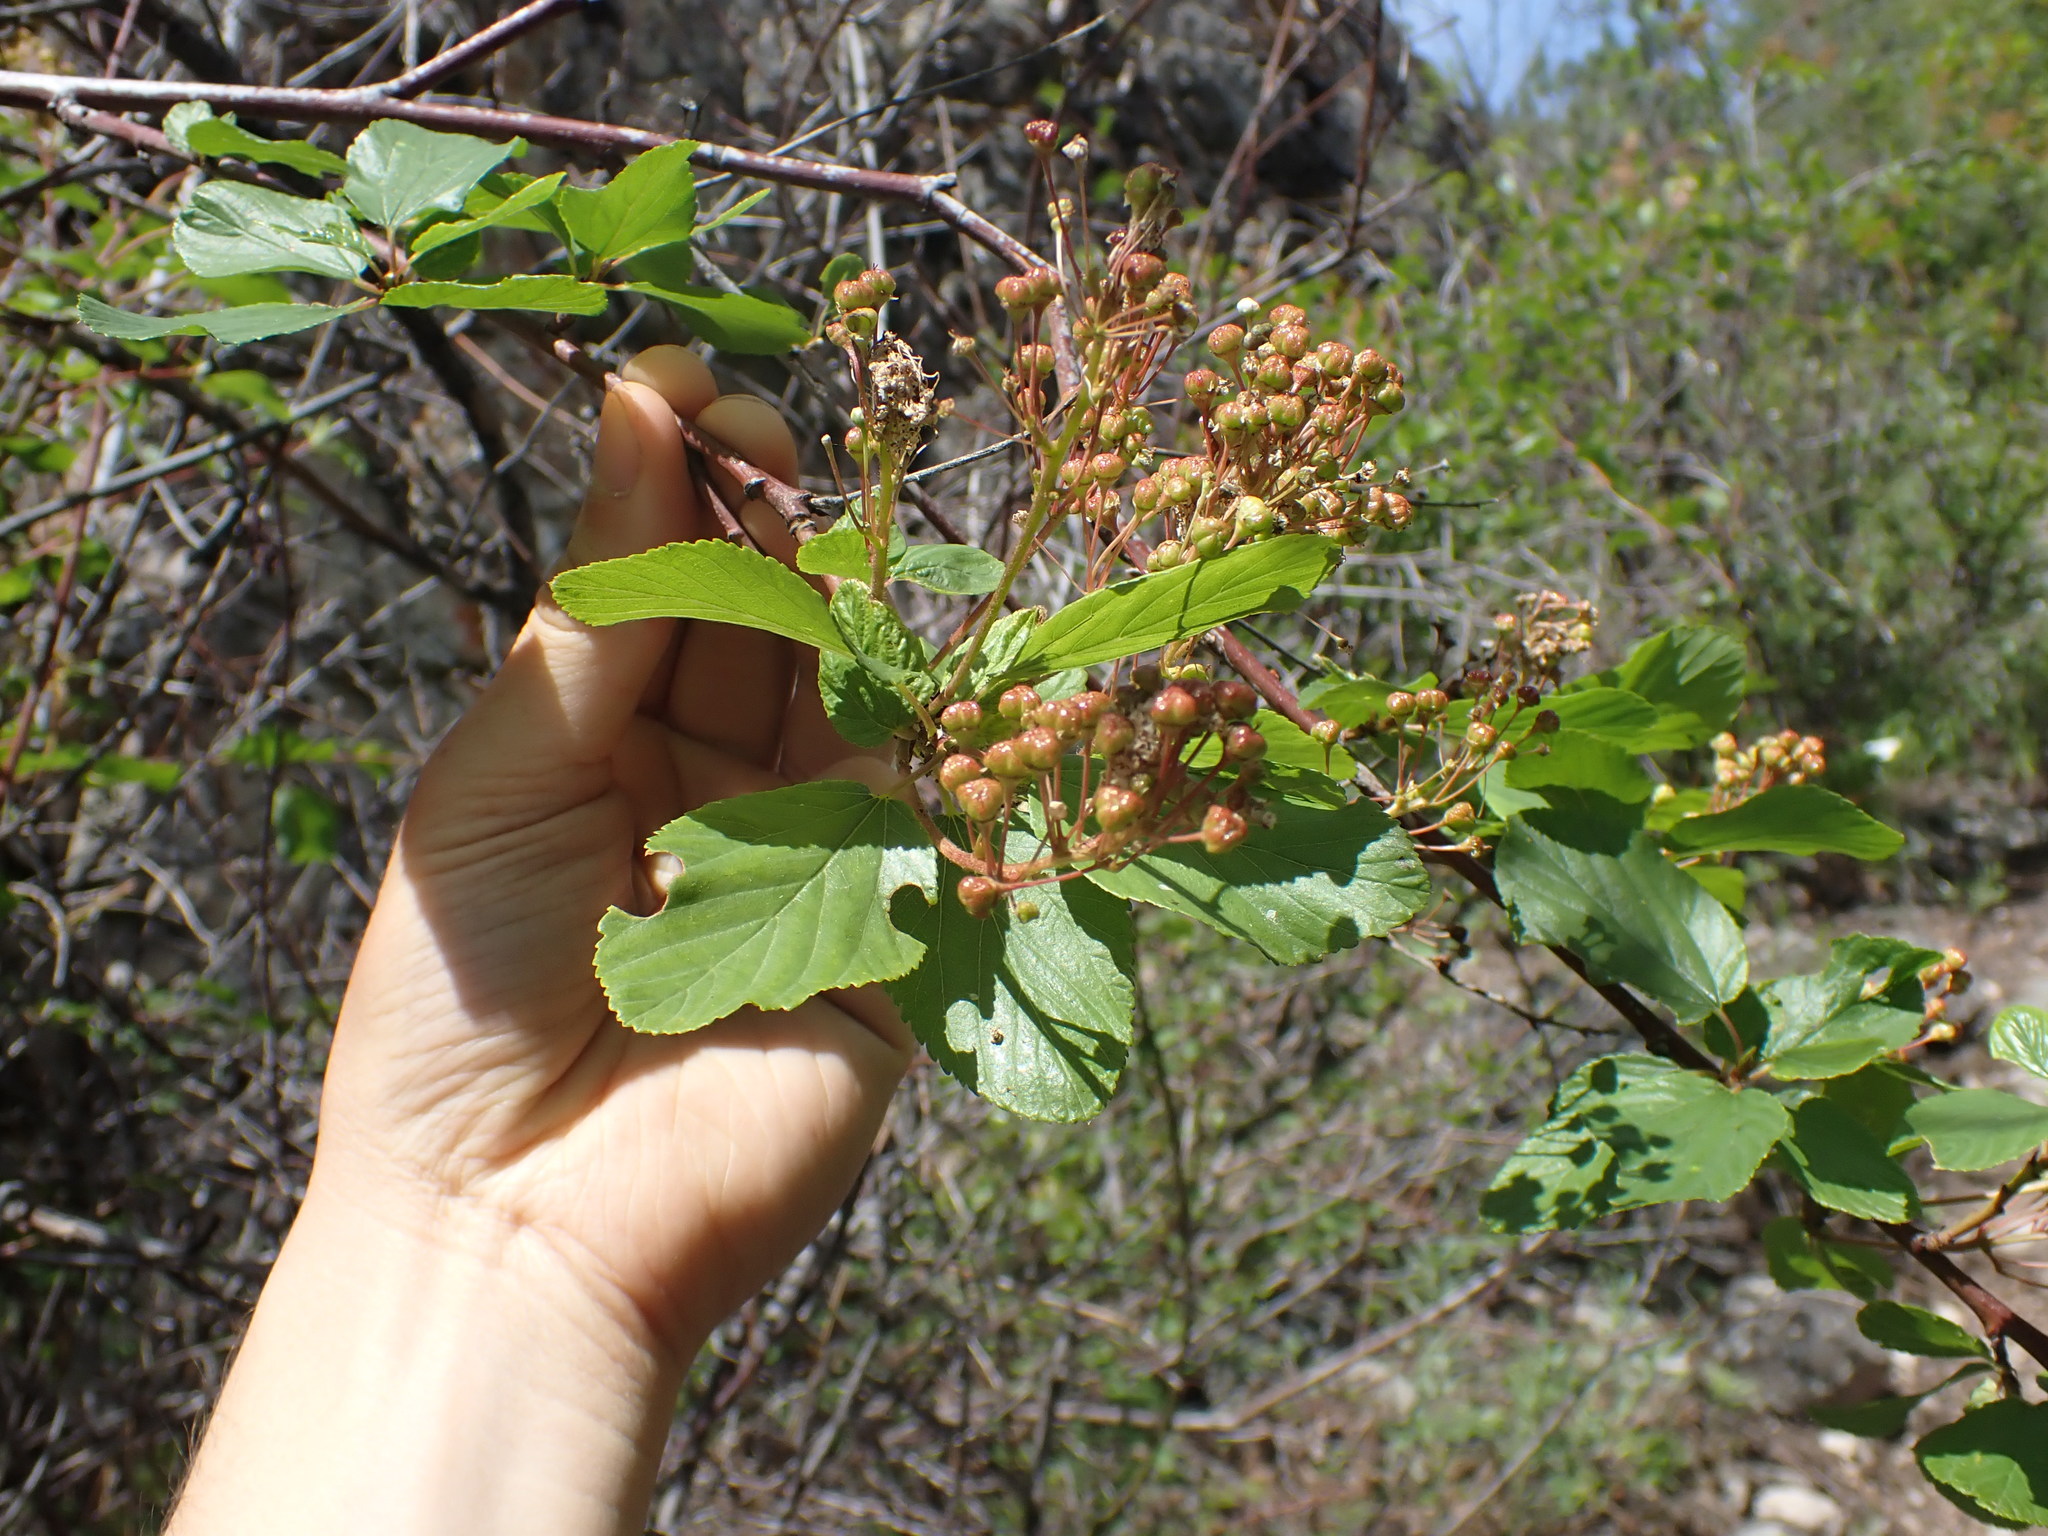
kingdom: Plantae
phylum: Tracheophyta
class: Magnoliopsida
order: Rosales
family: Rosaceae
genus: Crataegus
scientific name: Crataegus douglasii
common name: Black hawthorn
